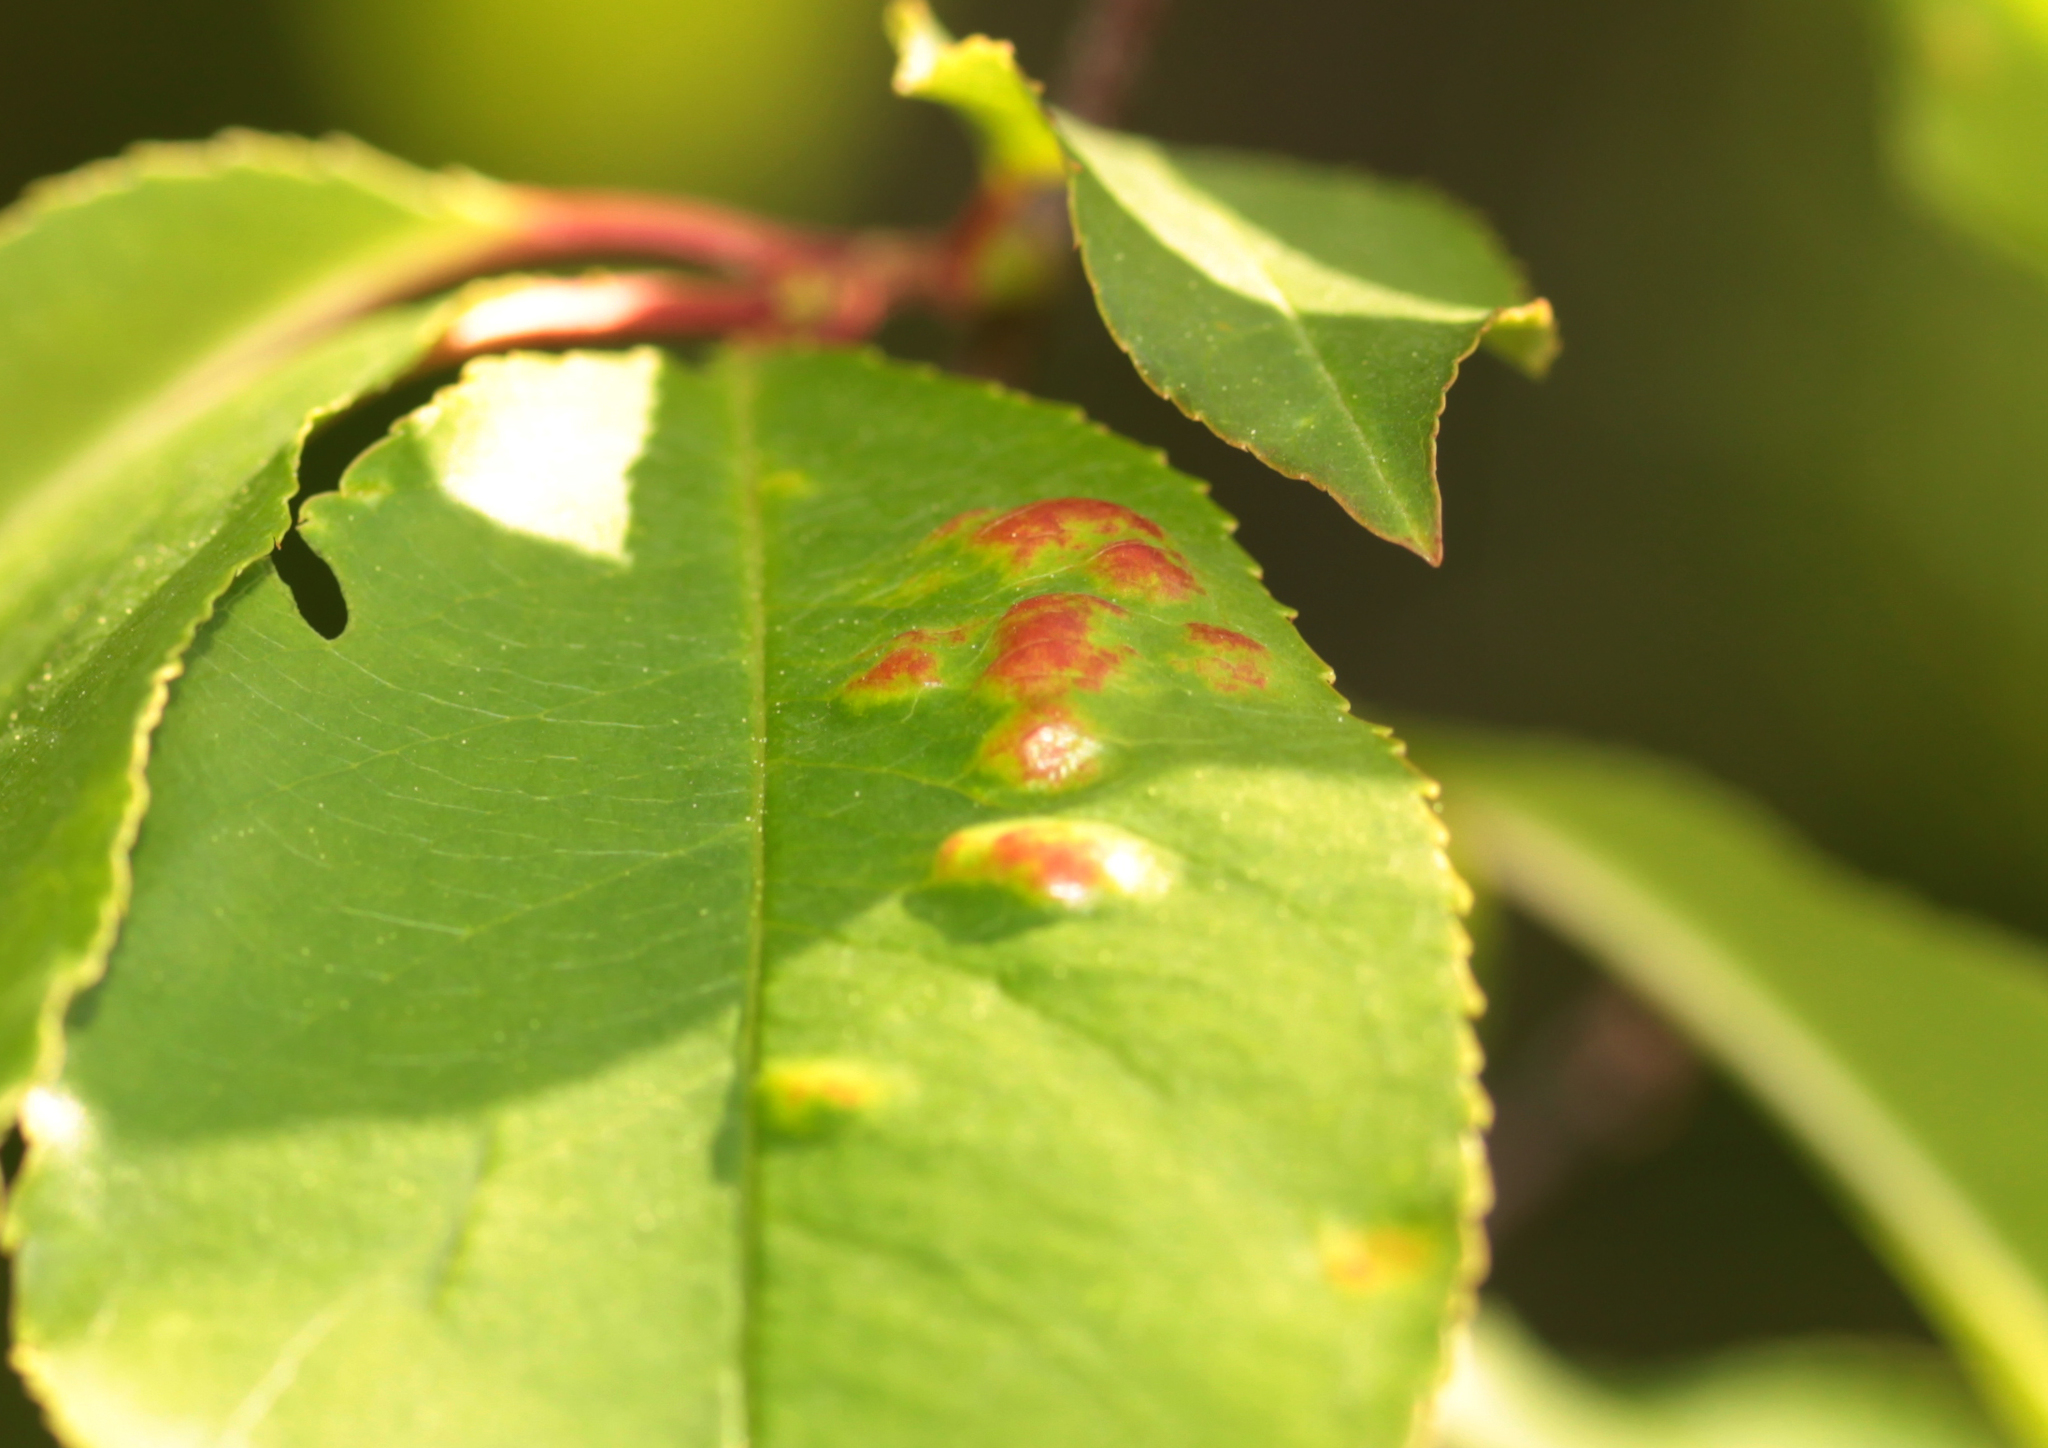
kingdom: Fungi
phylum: Ascomycota
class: Taphrinomycetes
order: Taphrinales
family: Taphrinaceae
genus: Taphrina
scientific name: Taphrina farlowii
